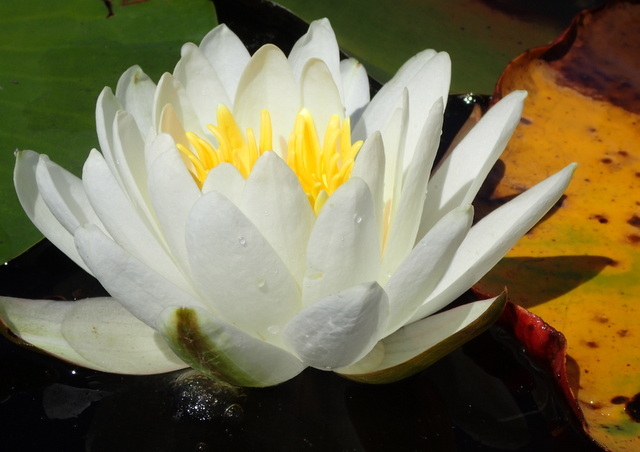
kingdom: Plantae
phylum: Tracheophyta
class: Magnoliopsida
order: Nymphaeales
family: Nymphaeaceae
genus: Nymphaea
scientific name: Nymphaea odorata
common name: Fragrant water-lily
